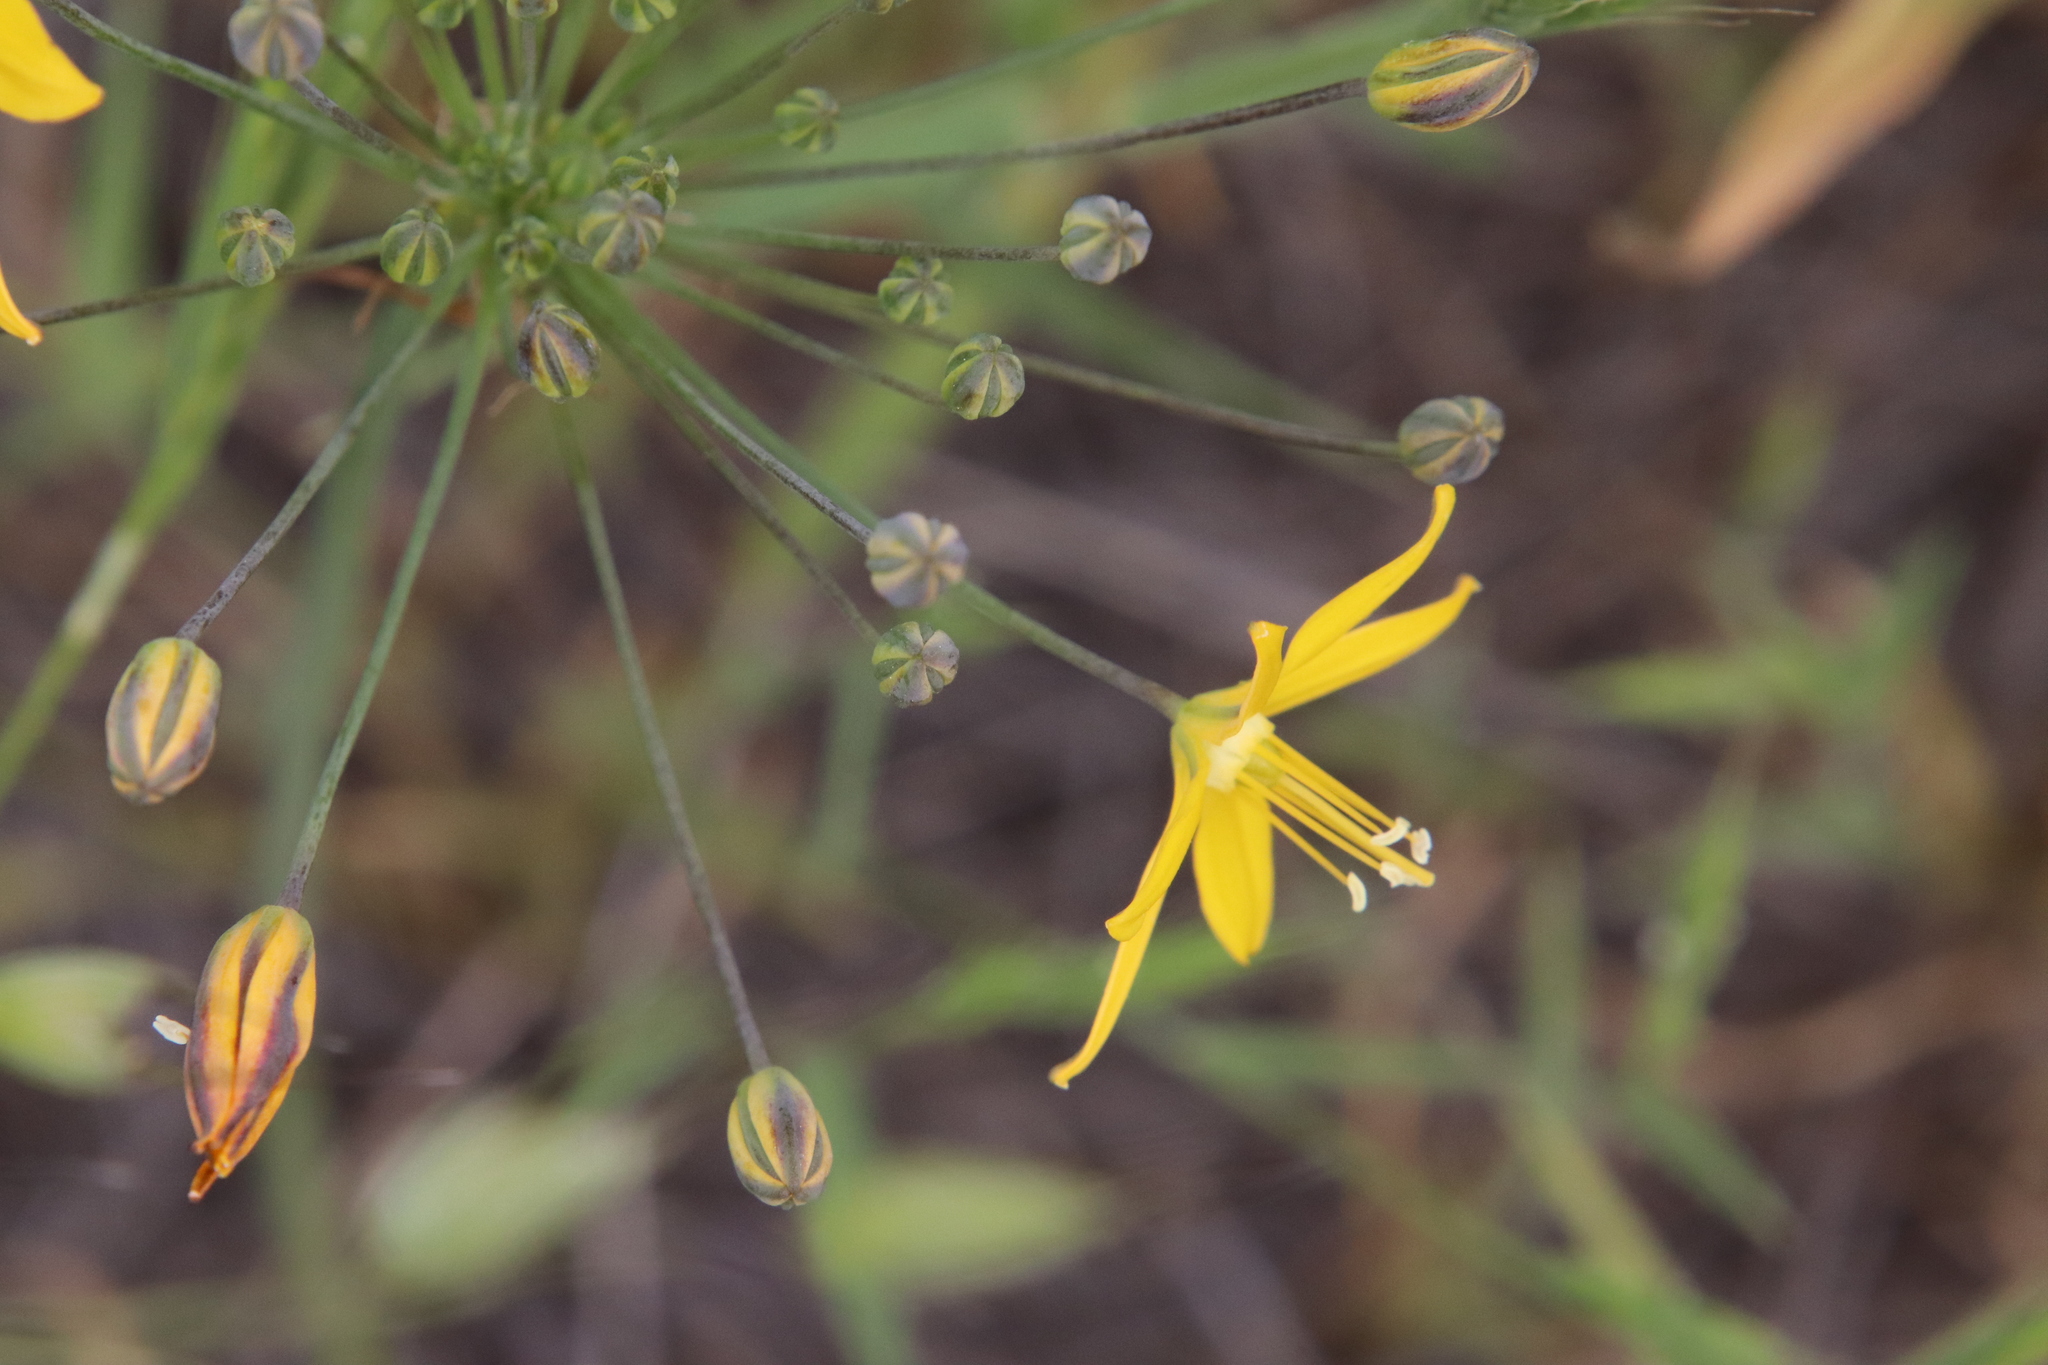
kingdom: Plantae
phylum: Tracheophyta
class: Liliopsida
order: Asparagales
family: Asparagaceae
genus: Bloomeria
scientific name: Bloomeria crocea
